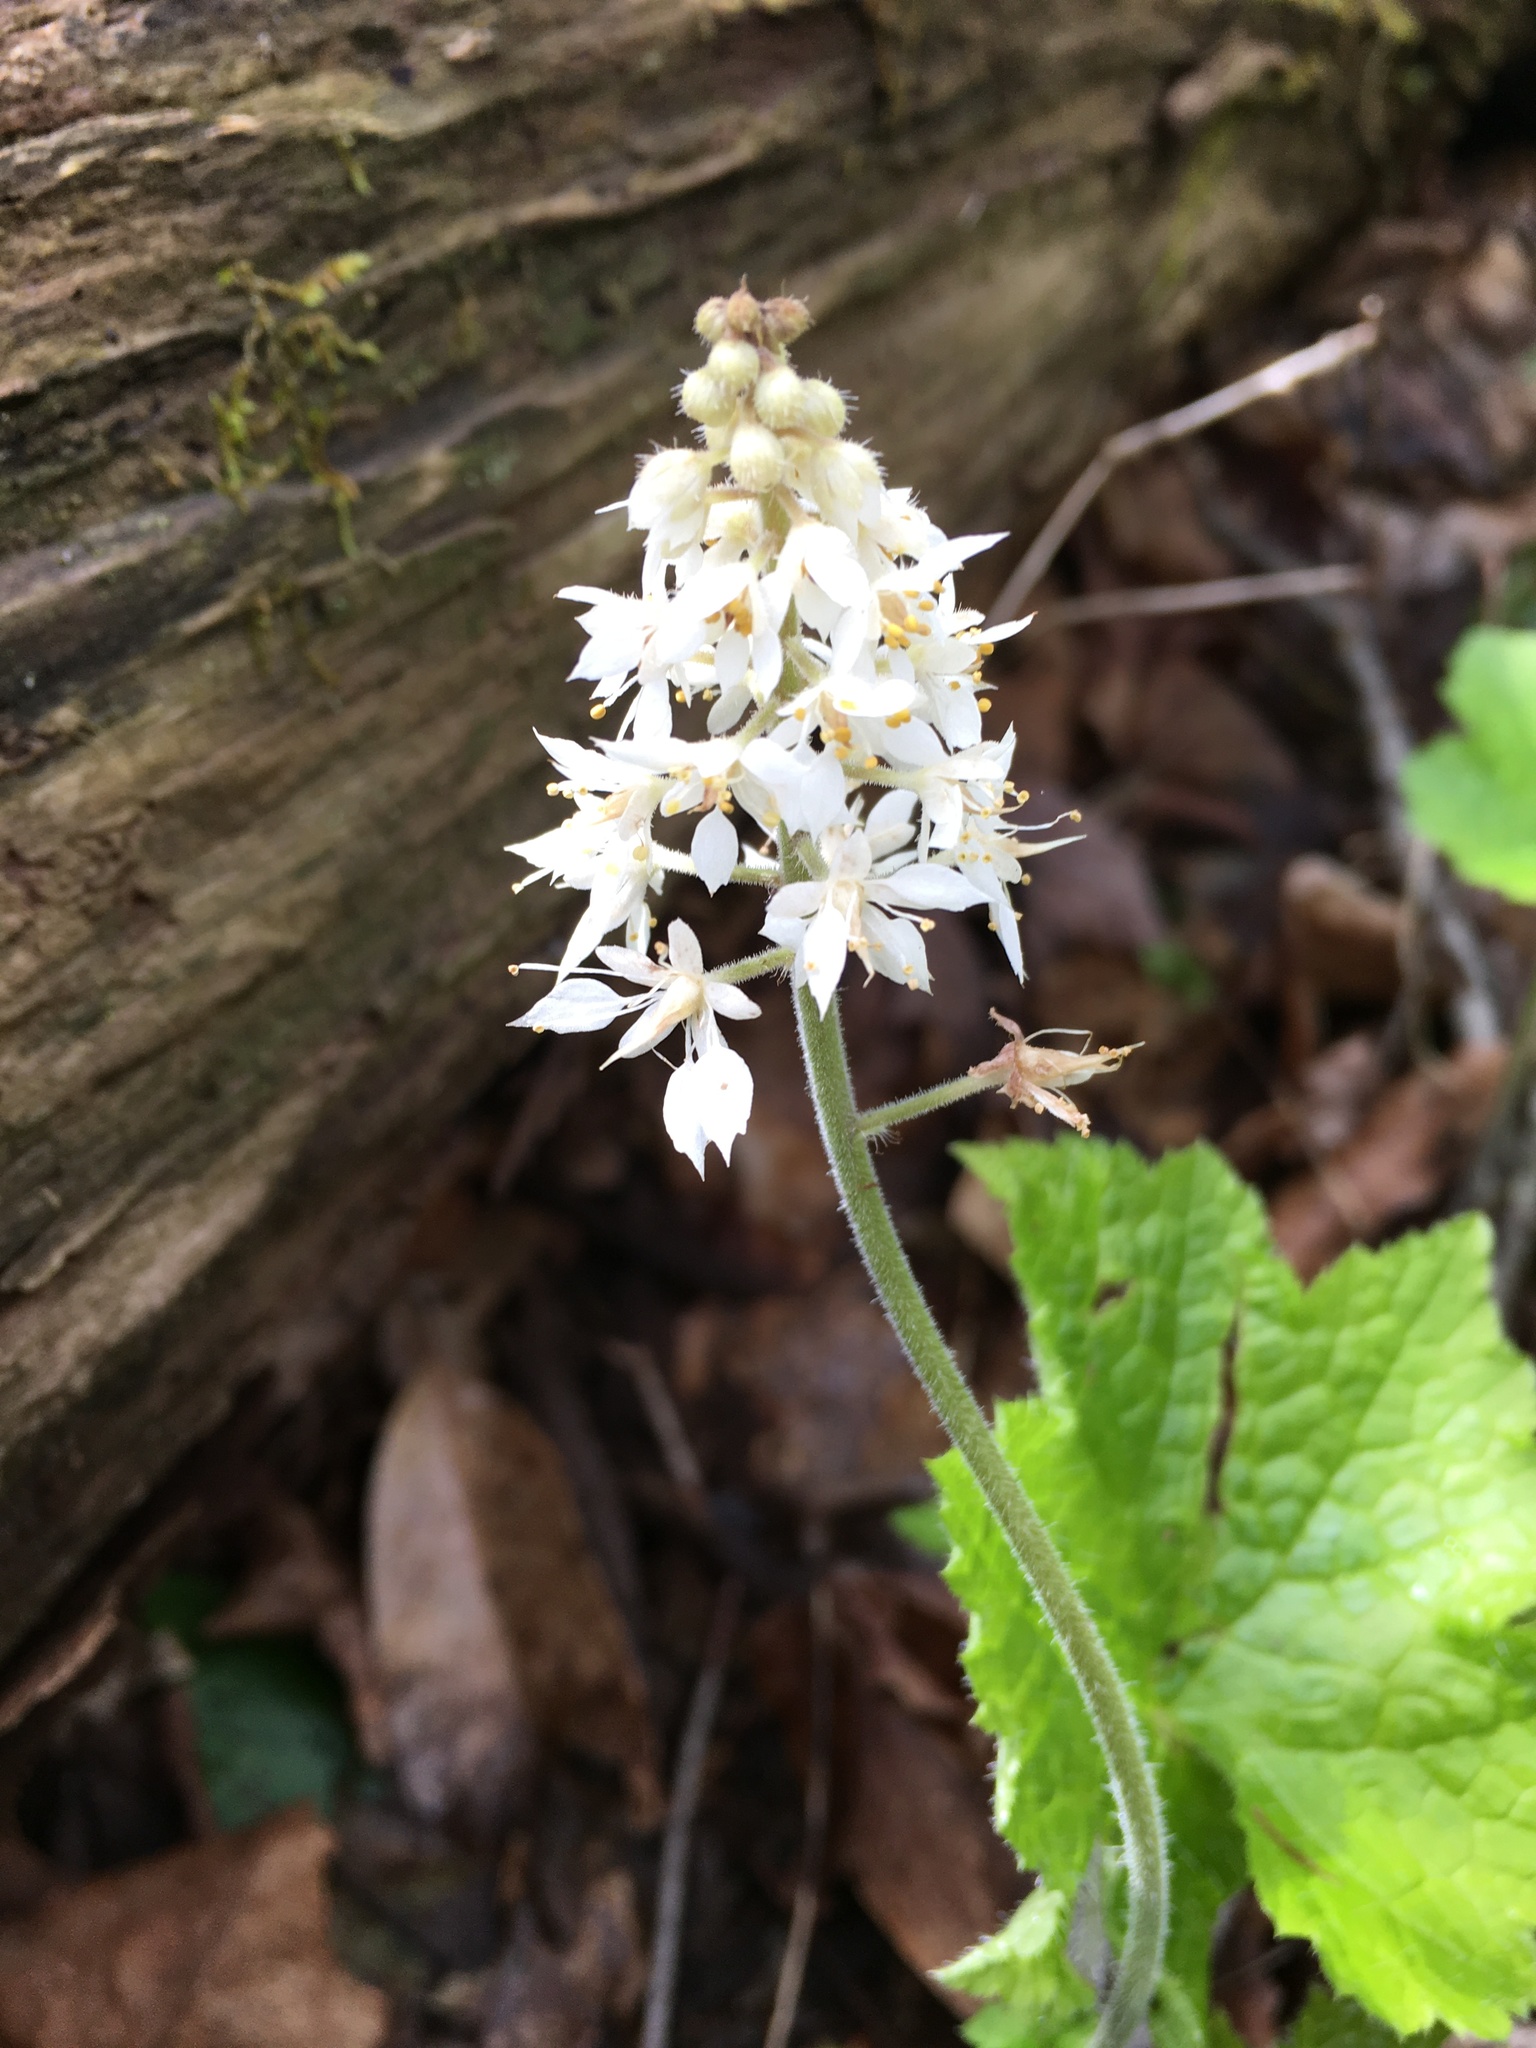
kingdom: Plantae
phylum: Tracheophyta
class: Magnoliopsida
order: Saxifragales
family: Saxifragaceae
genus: Tiarella
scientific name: Tiarella stolonifera
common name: Stoloniferous foamflower
